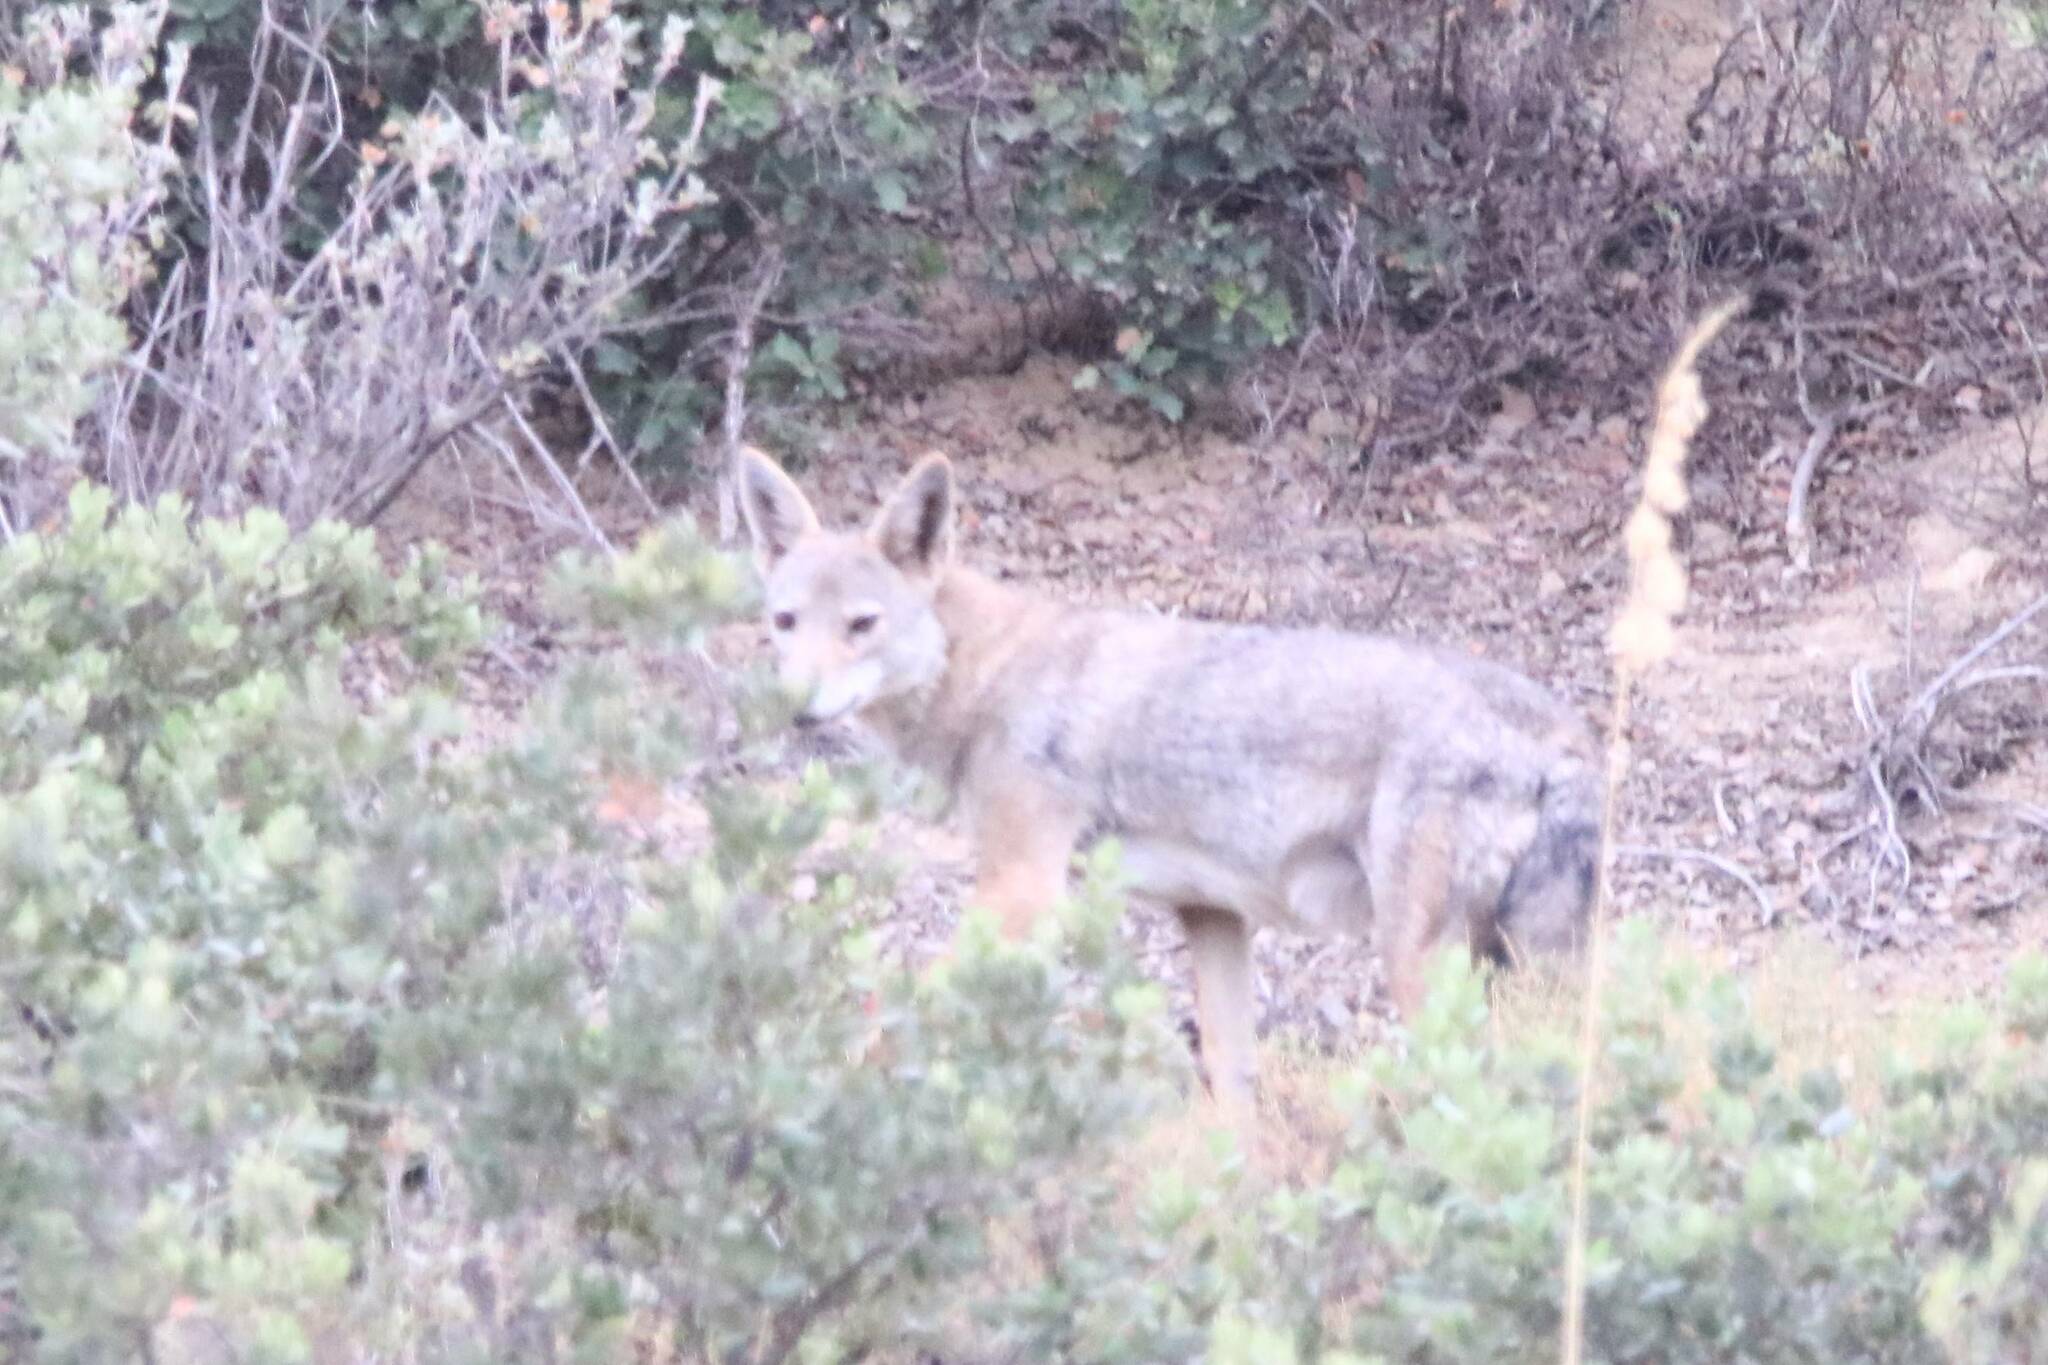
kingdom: Animalia
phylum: Chordata
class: Mammalia
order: Carnivora
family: Canidae
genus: Canis
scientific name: Canis lupaster
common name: African golden wolf
